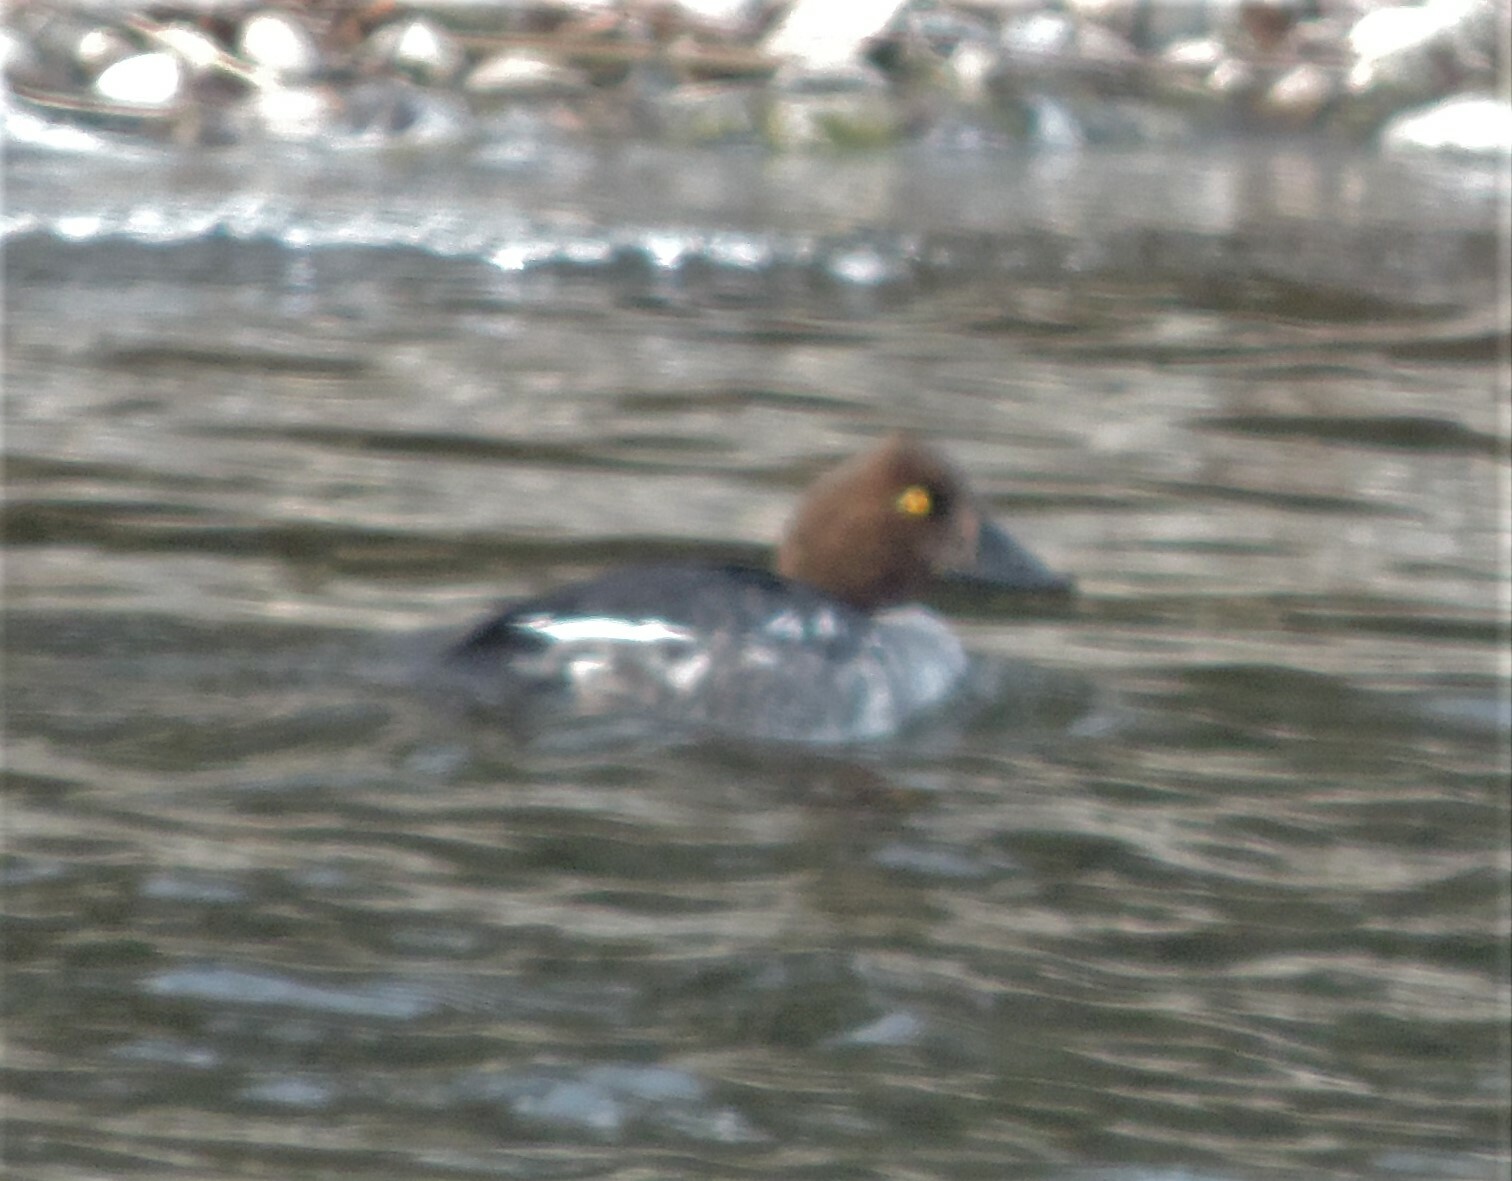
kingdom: Animalia
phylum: Chordata
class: Aves
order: Anseriformes
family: Anatidae
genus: Bucephala
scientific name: Bucephala clangula
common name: Common goldeneye
